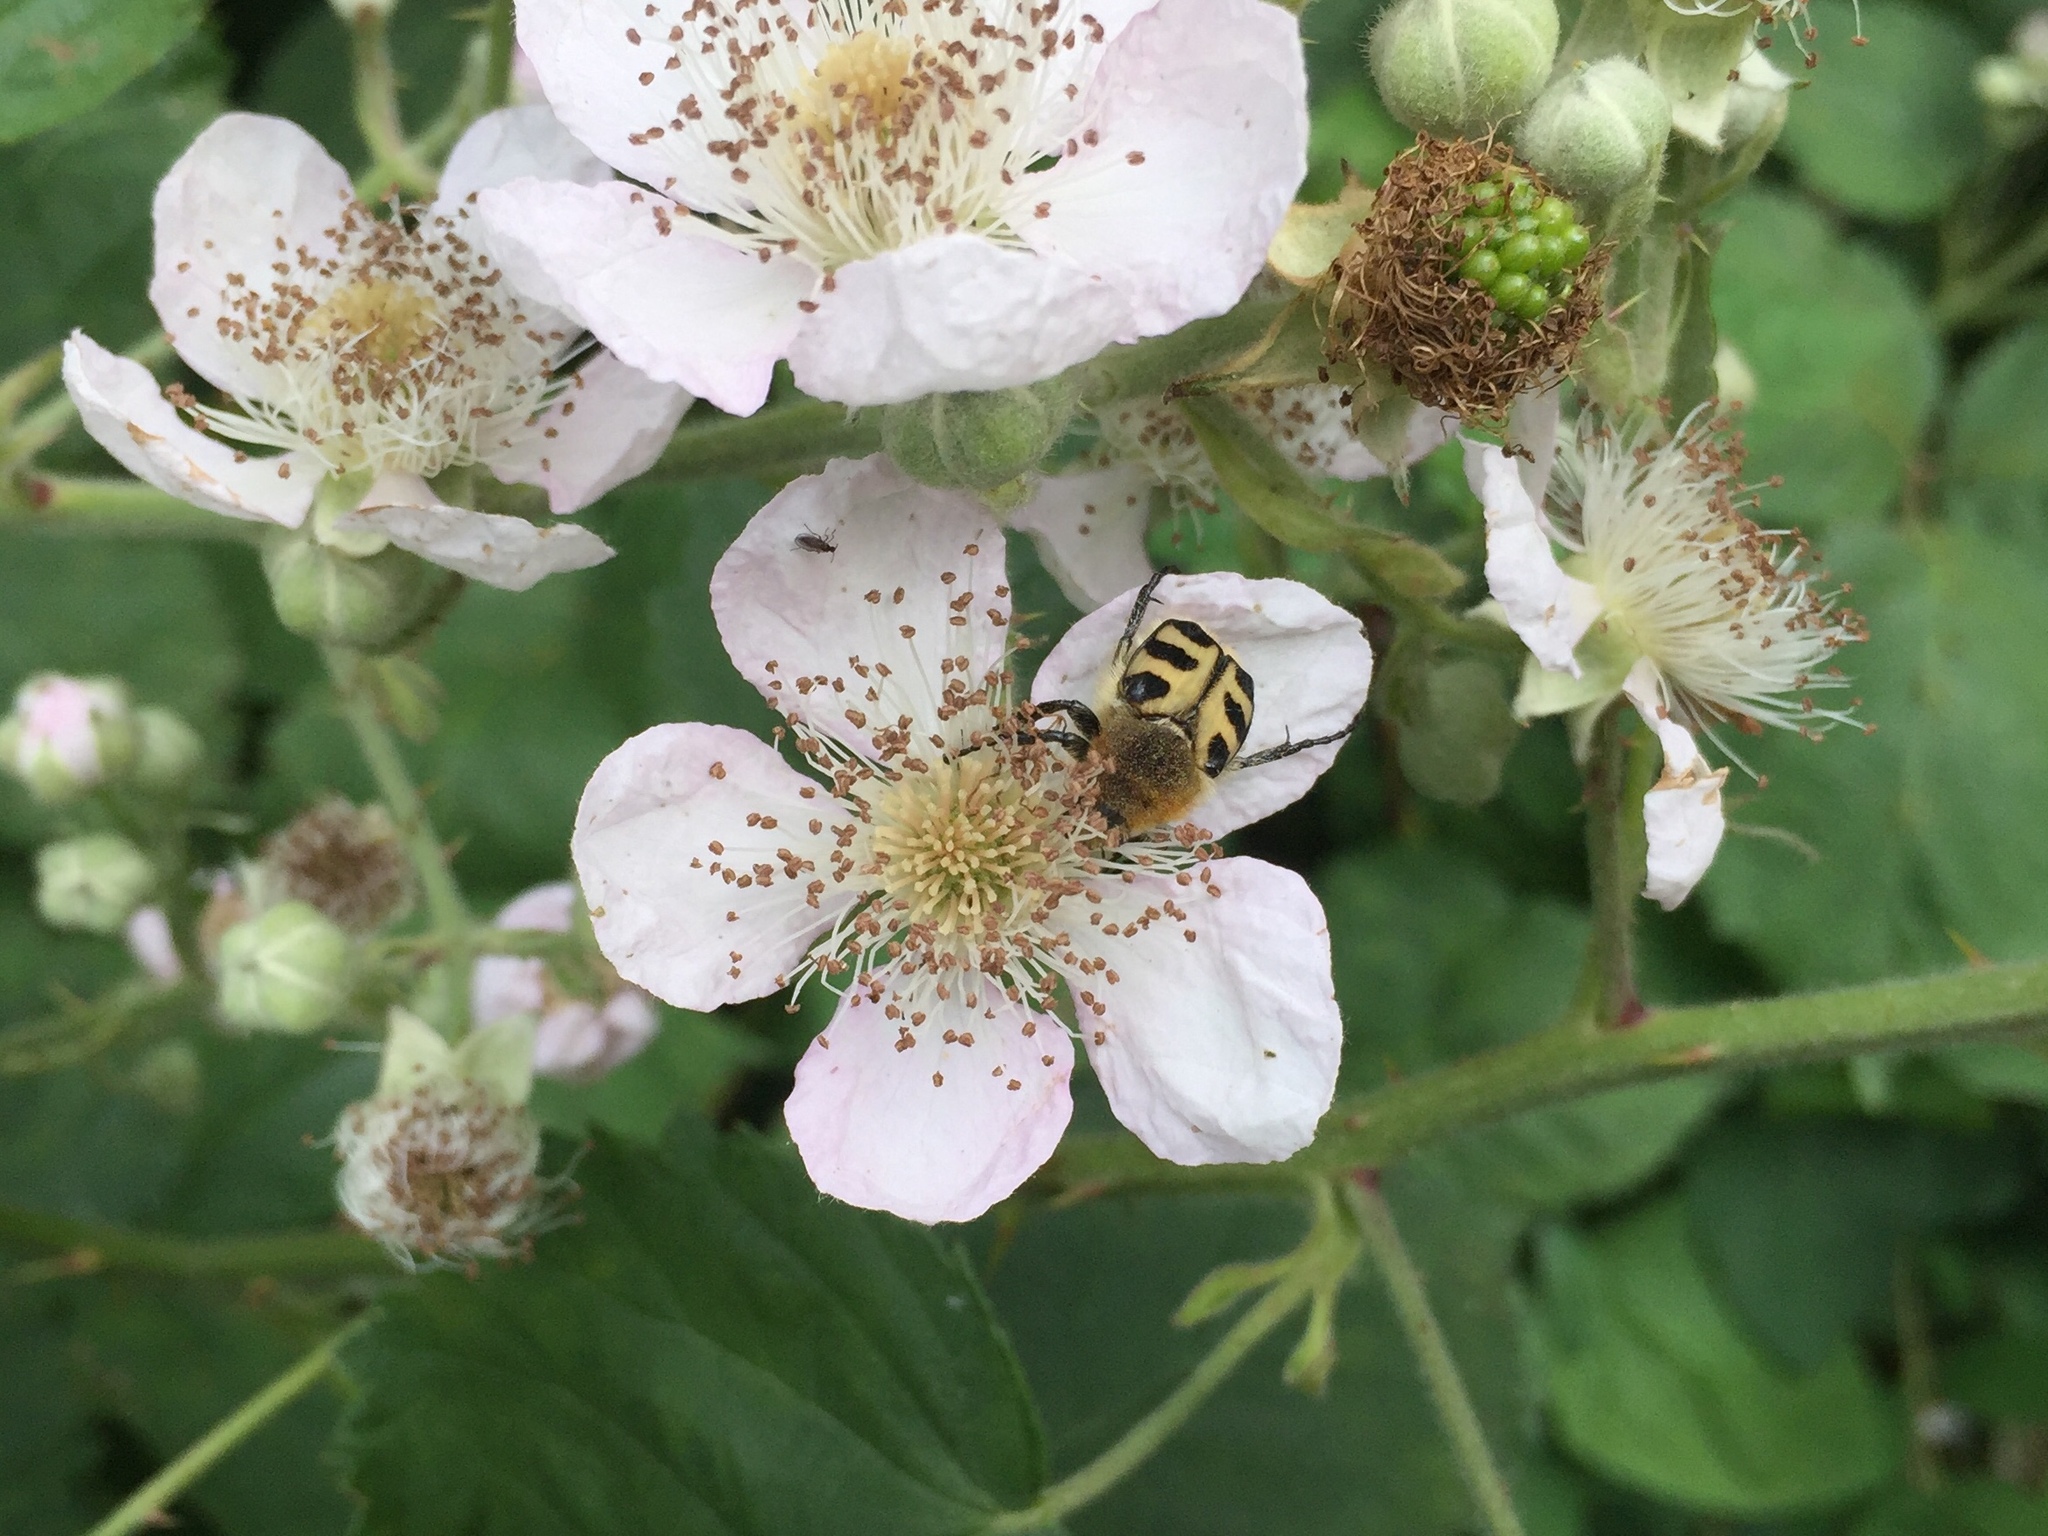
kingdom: Animalia
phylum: Arthropoda
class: Insecta
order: Coleoptera
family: Scarabaeidae
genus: Trichius
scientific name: Trichius gallicus
